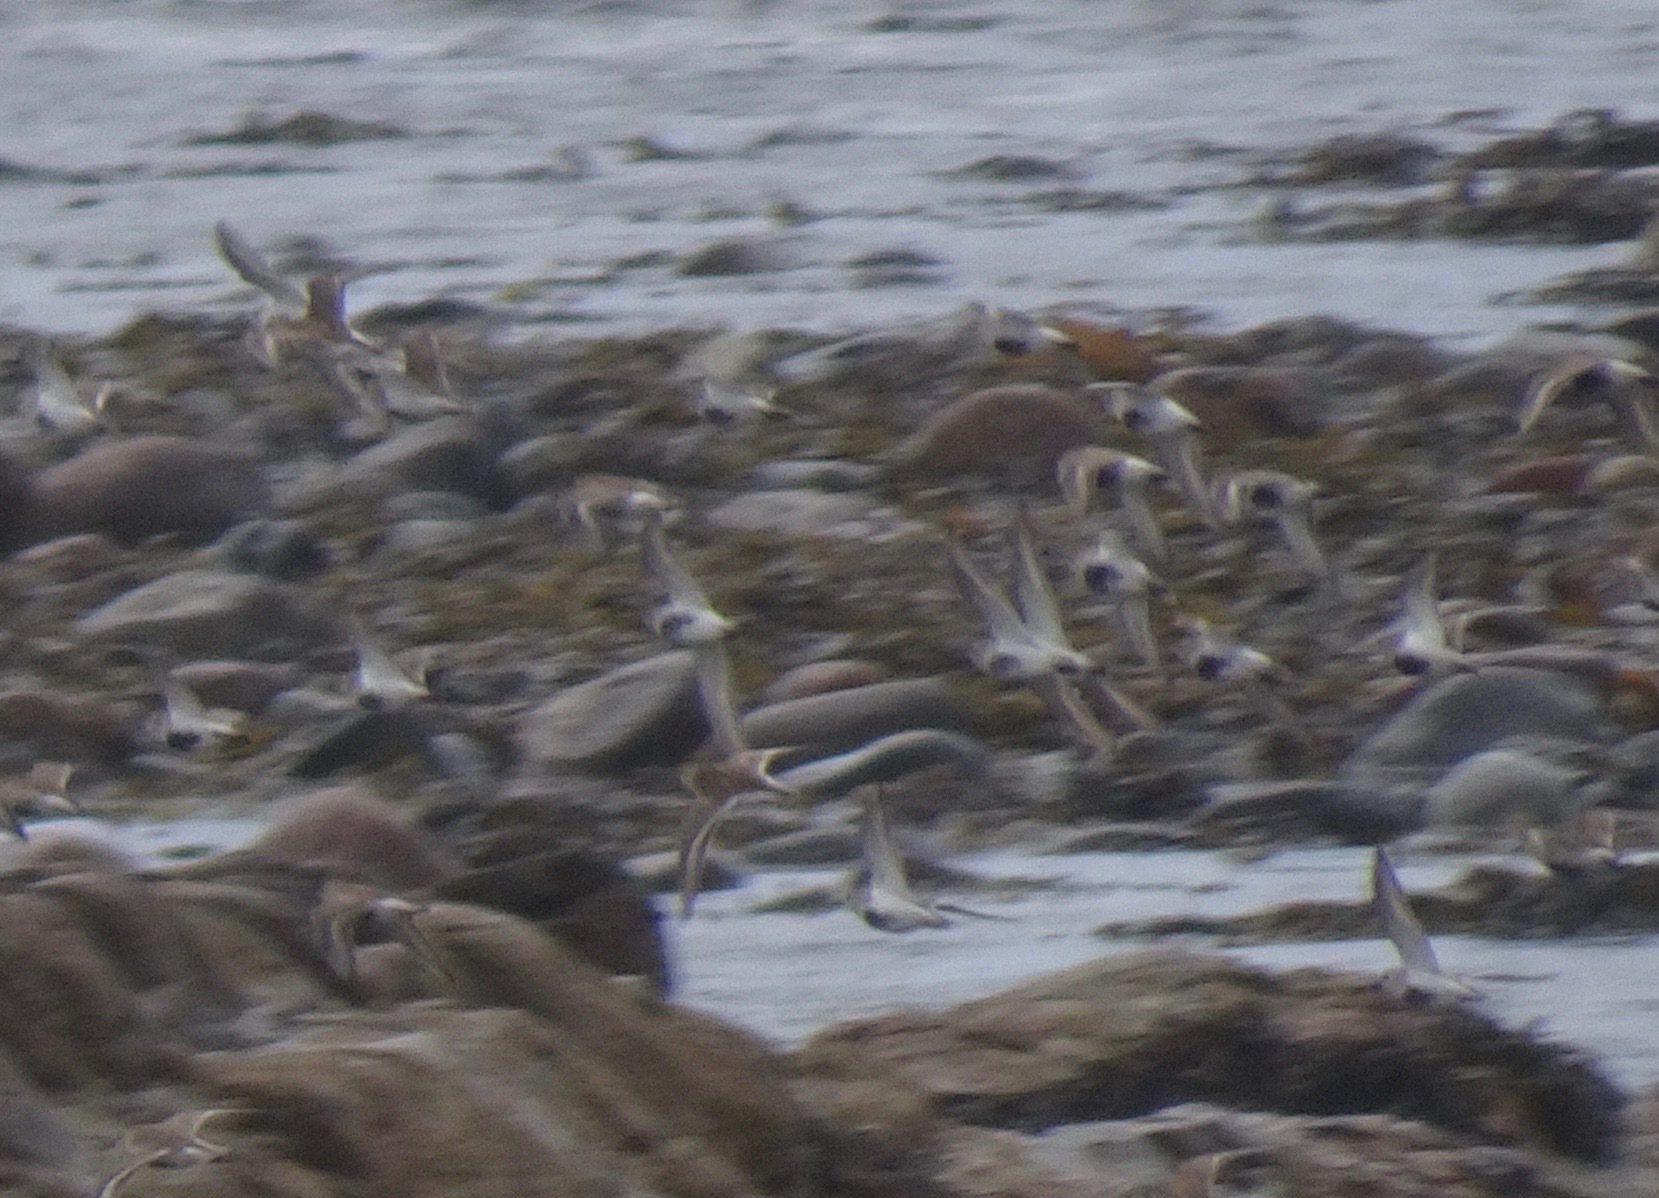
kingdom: Animalia
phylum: Chordata
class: Aves
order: Charadriiformes
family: Scolopacidae
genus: Calidris
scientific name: Calidris alpina
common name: Dunlin
